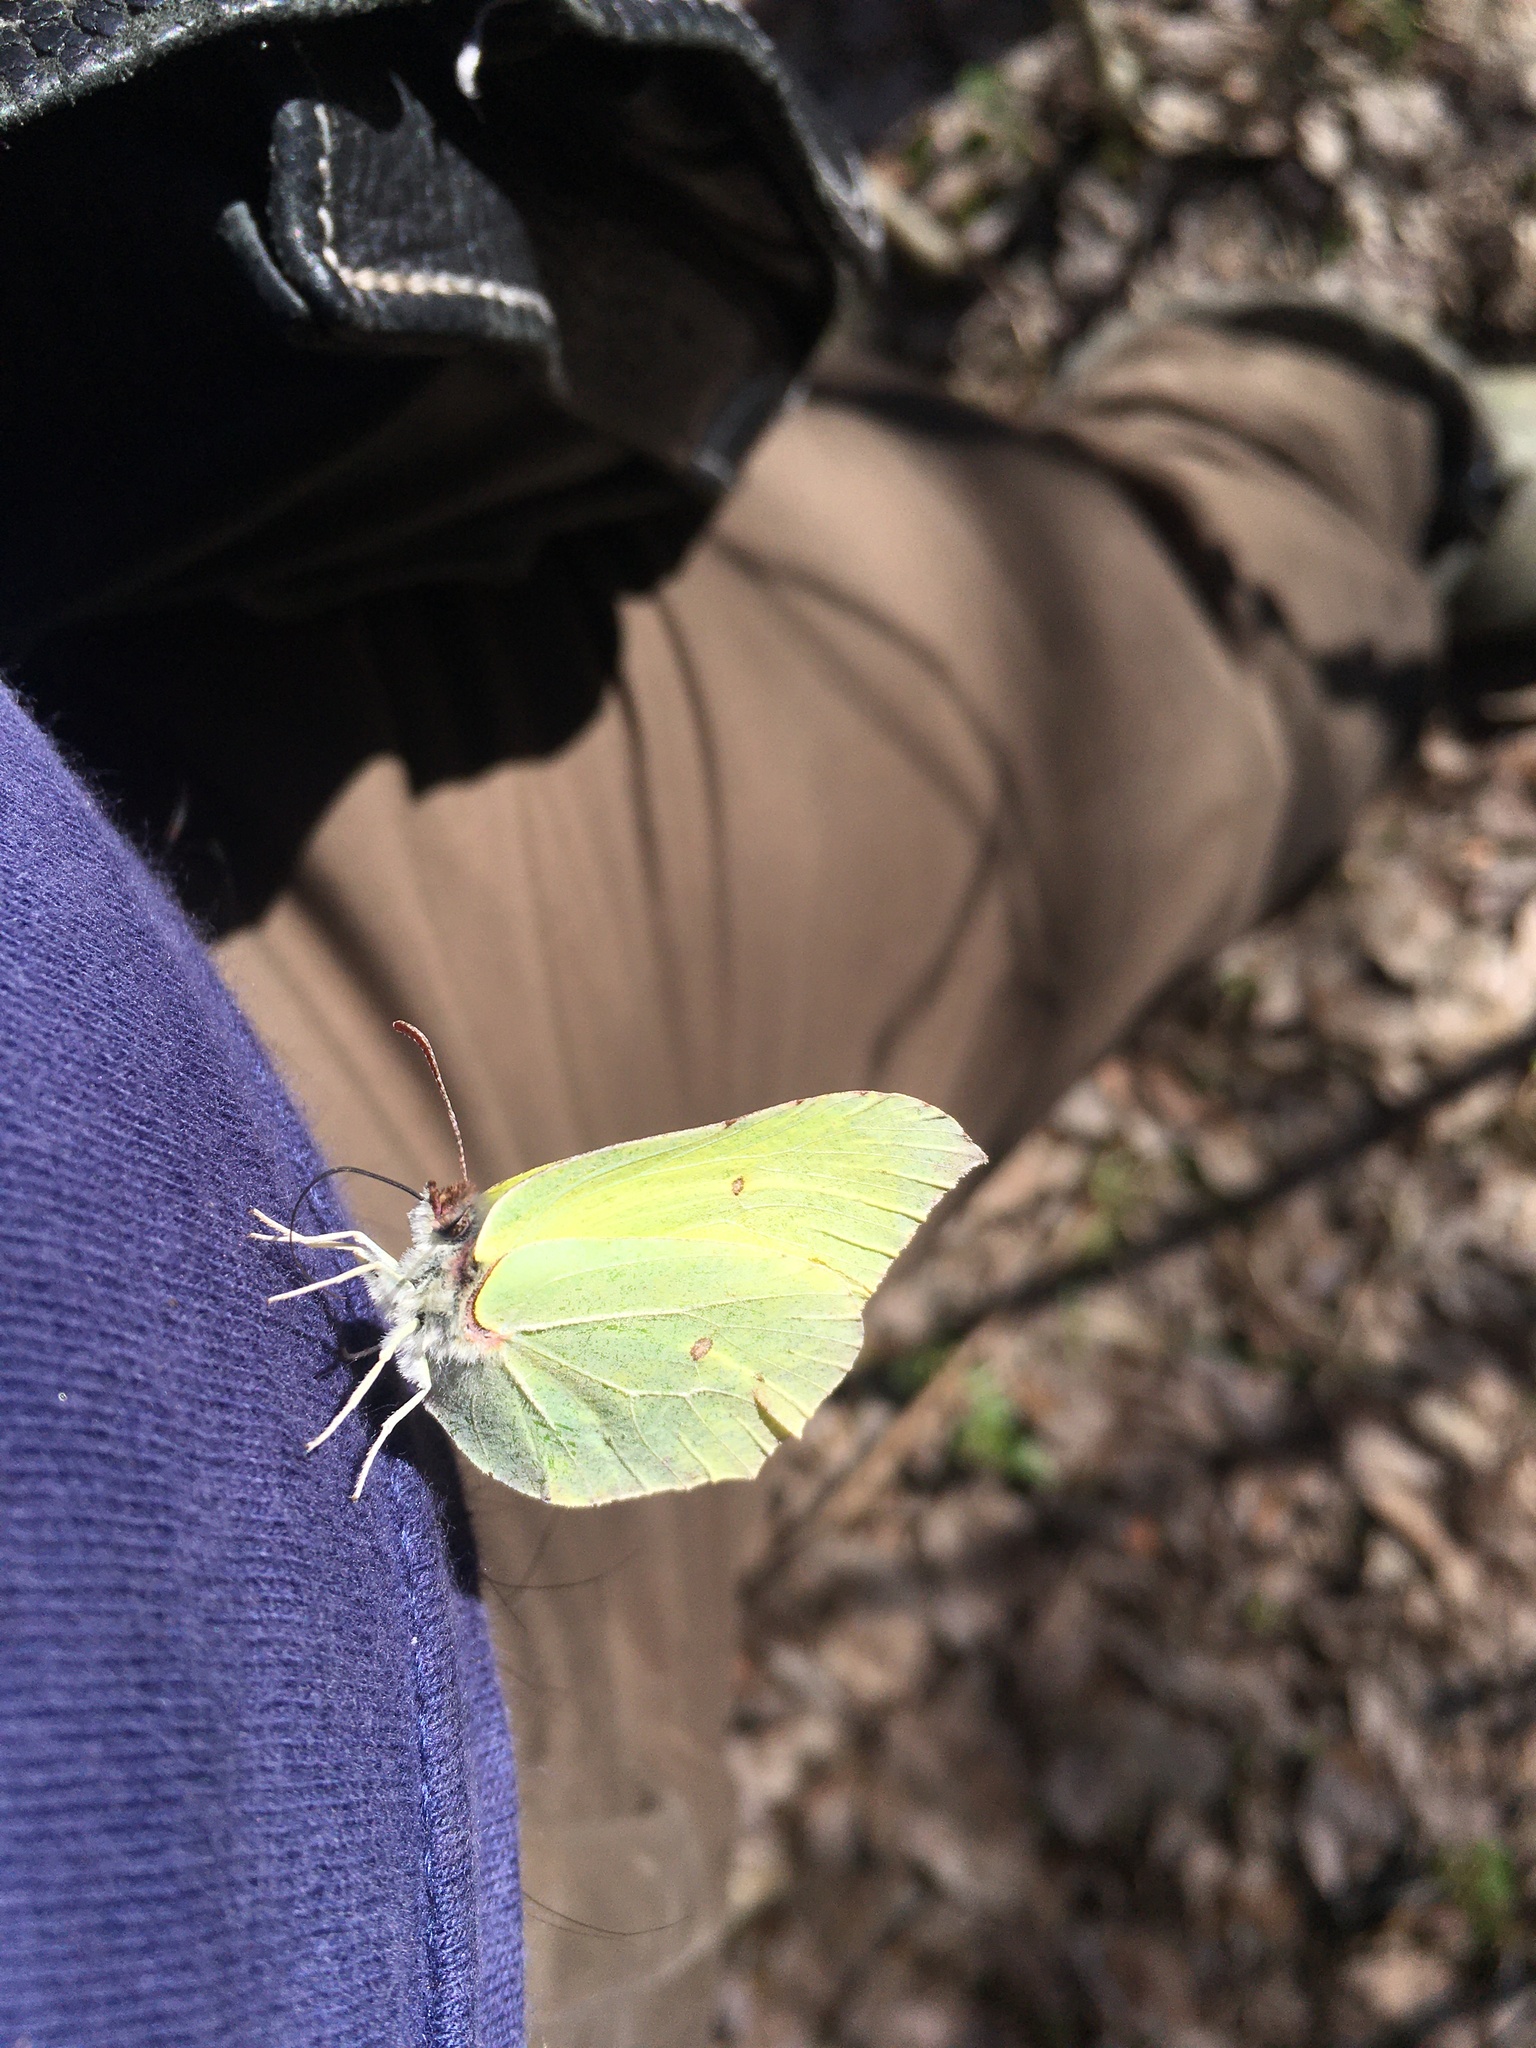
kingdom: Animalia
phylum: Arthropoda
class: Insecta
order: Lepidoptera
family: Pieridae
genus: Gonepteryx
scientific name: Gonepteryx rhamni
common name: Brimstone
